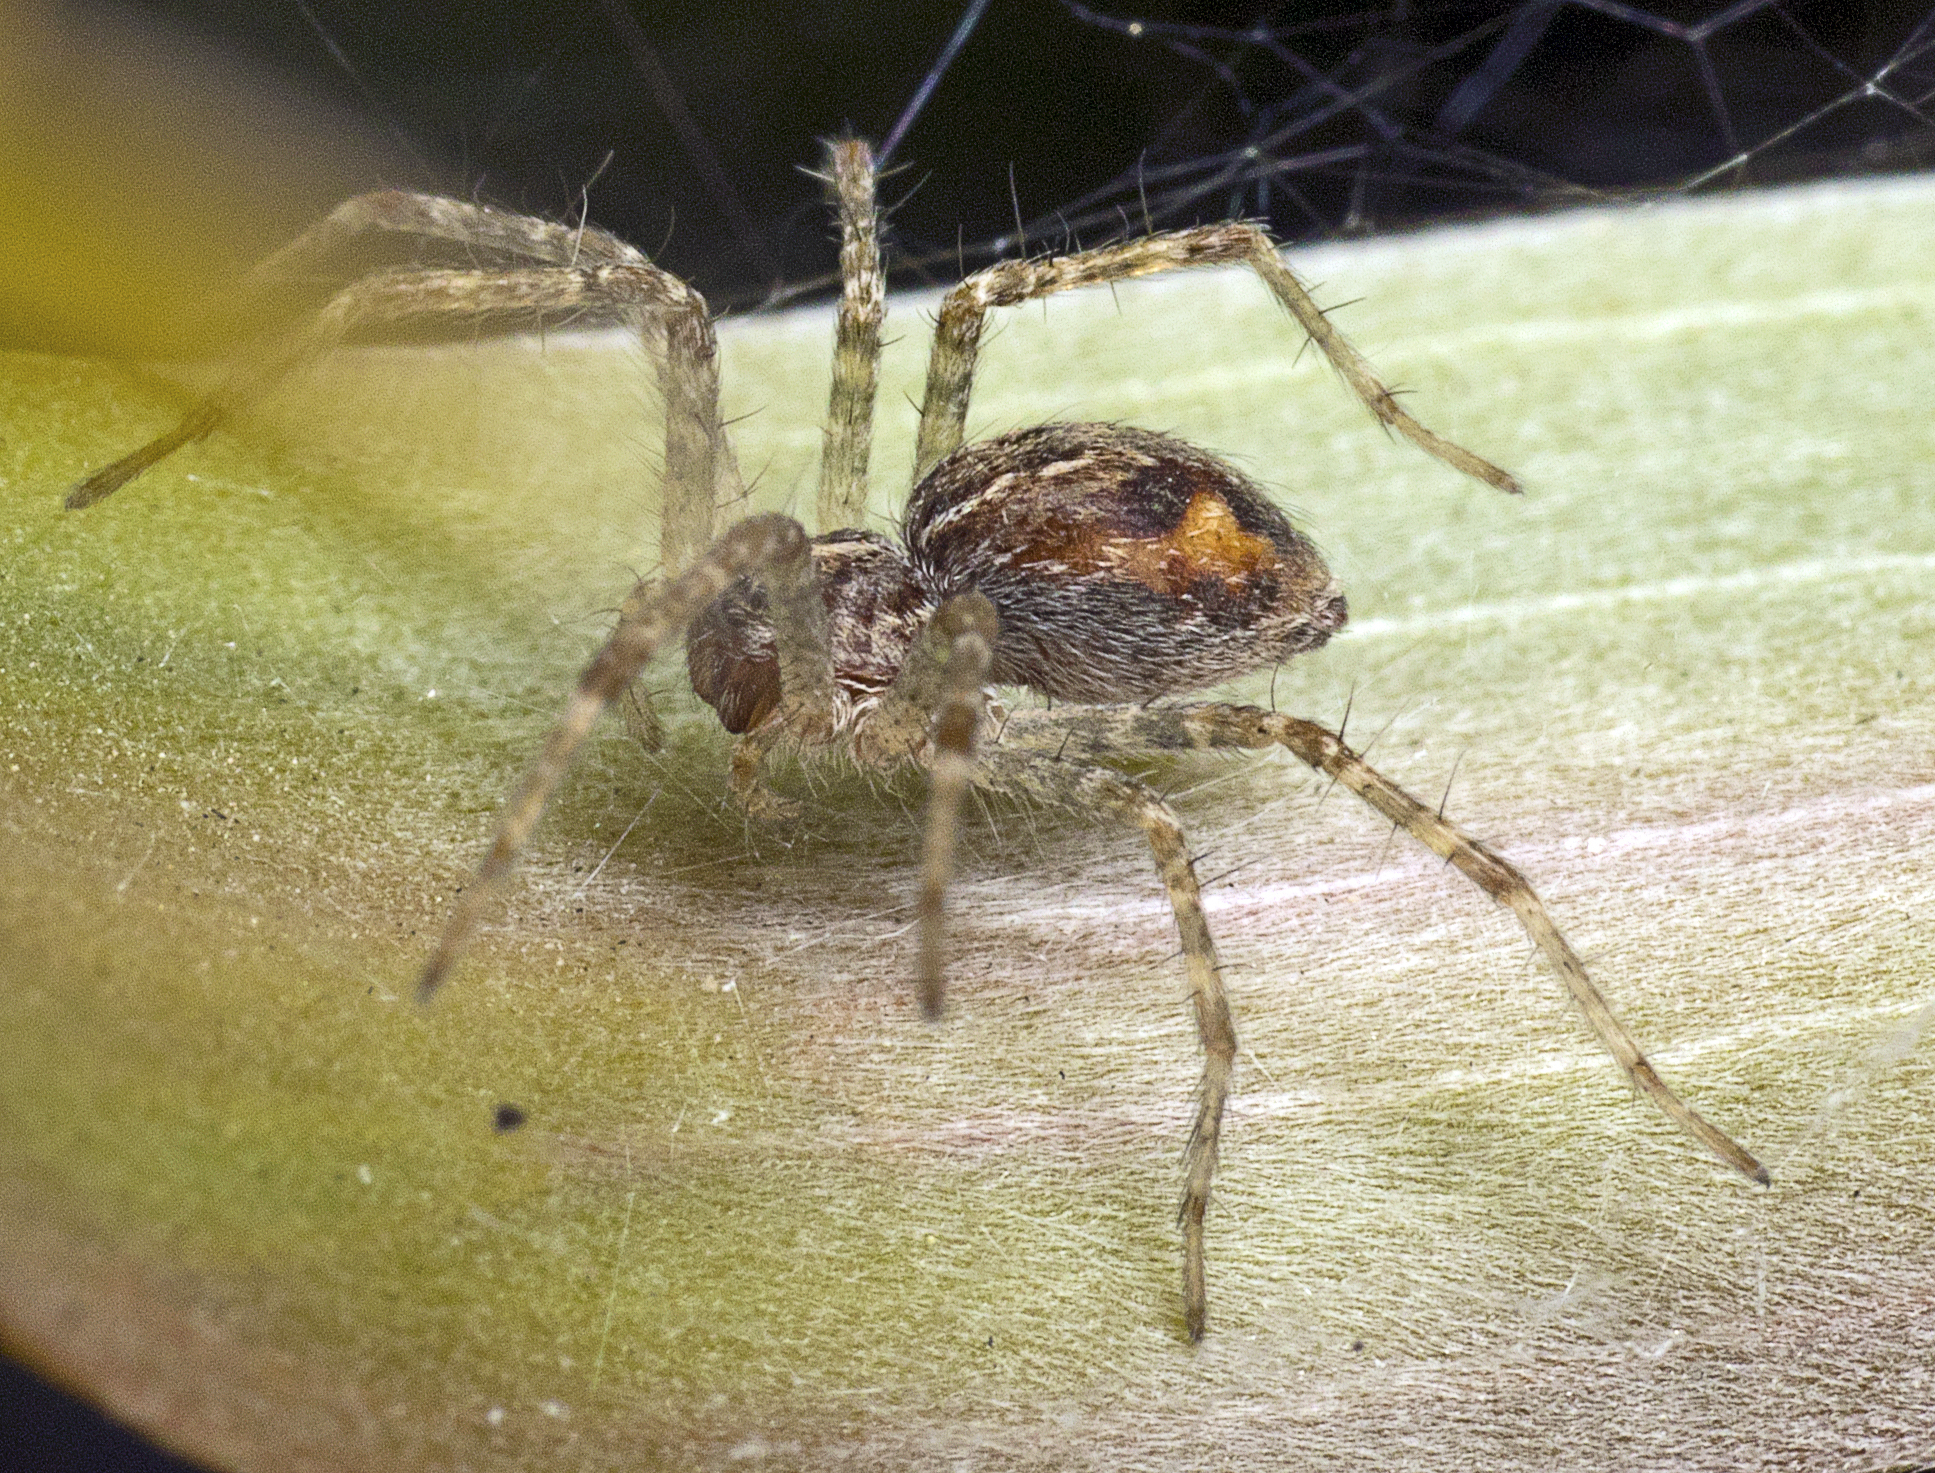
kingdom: Animalia
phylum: Arthropoda
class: Arachnida
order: Araneae
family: Pisauridae
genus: Dendrolycosa
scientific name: Dendrolycosa icadia
